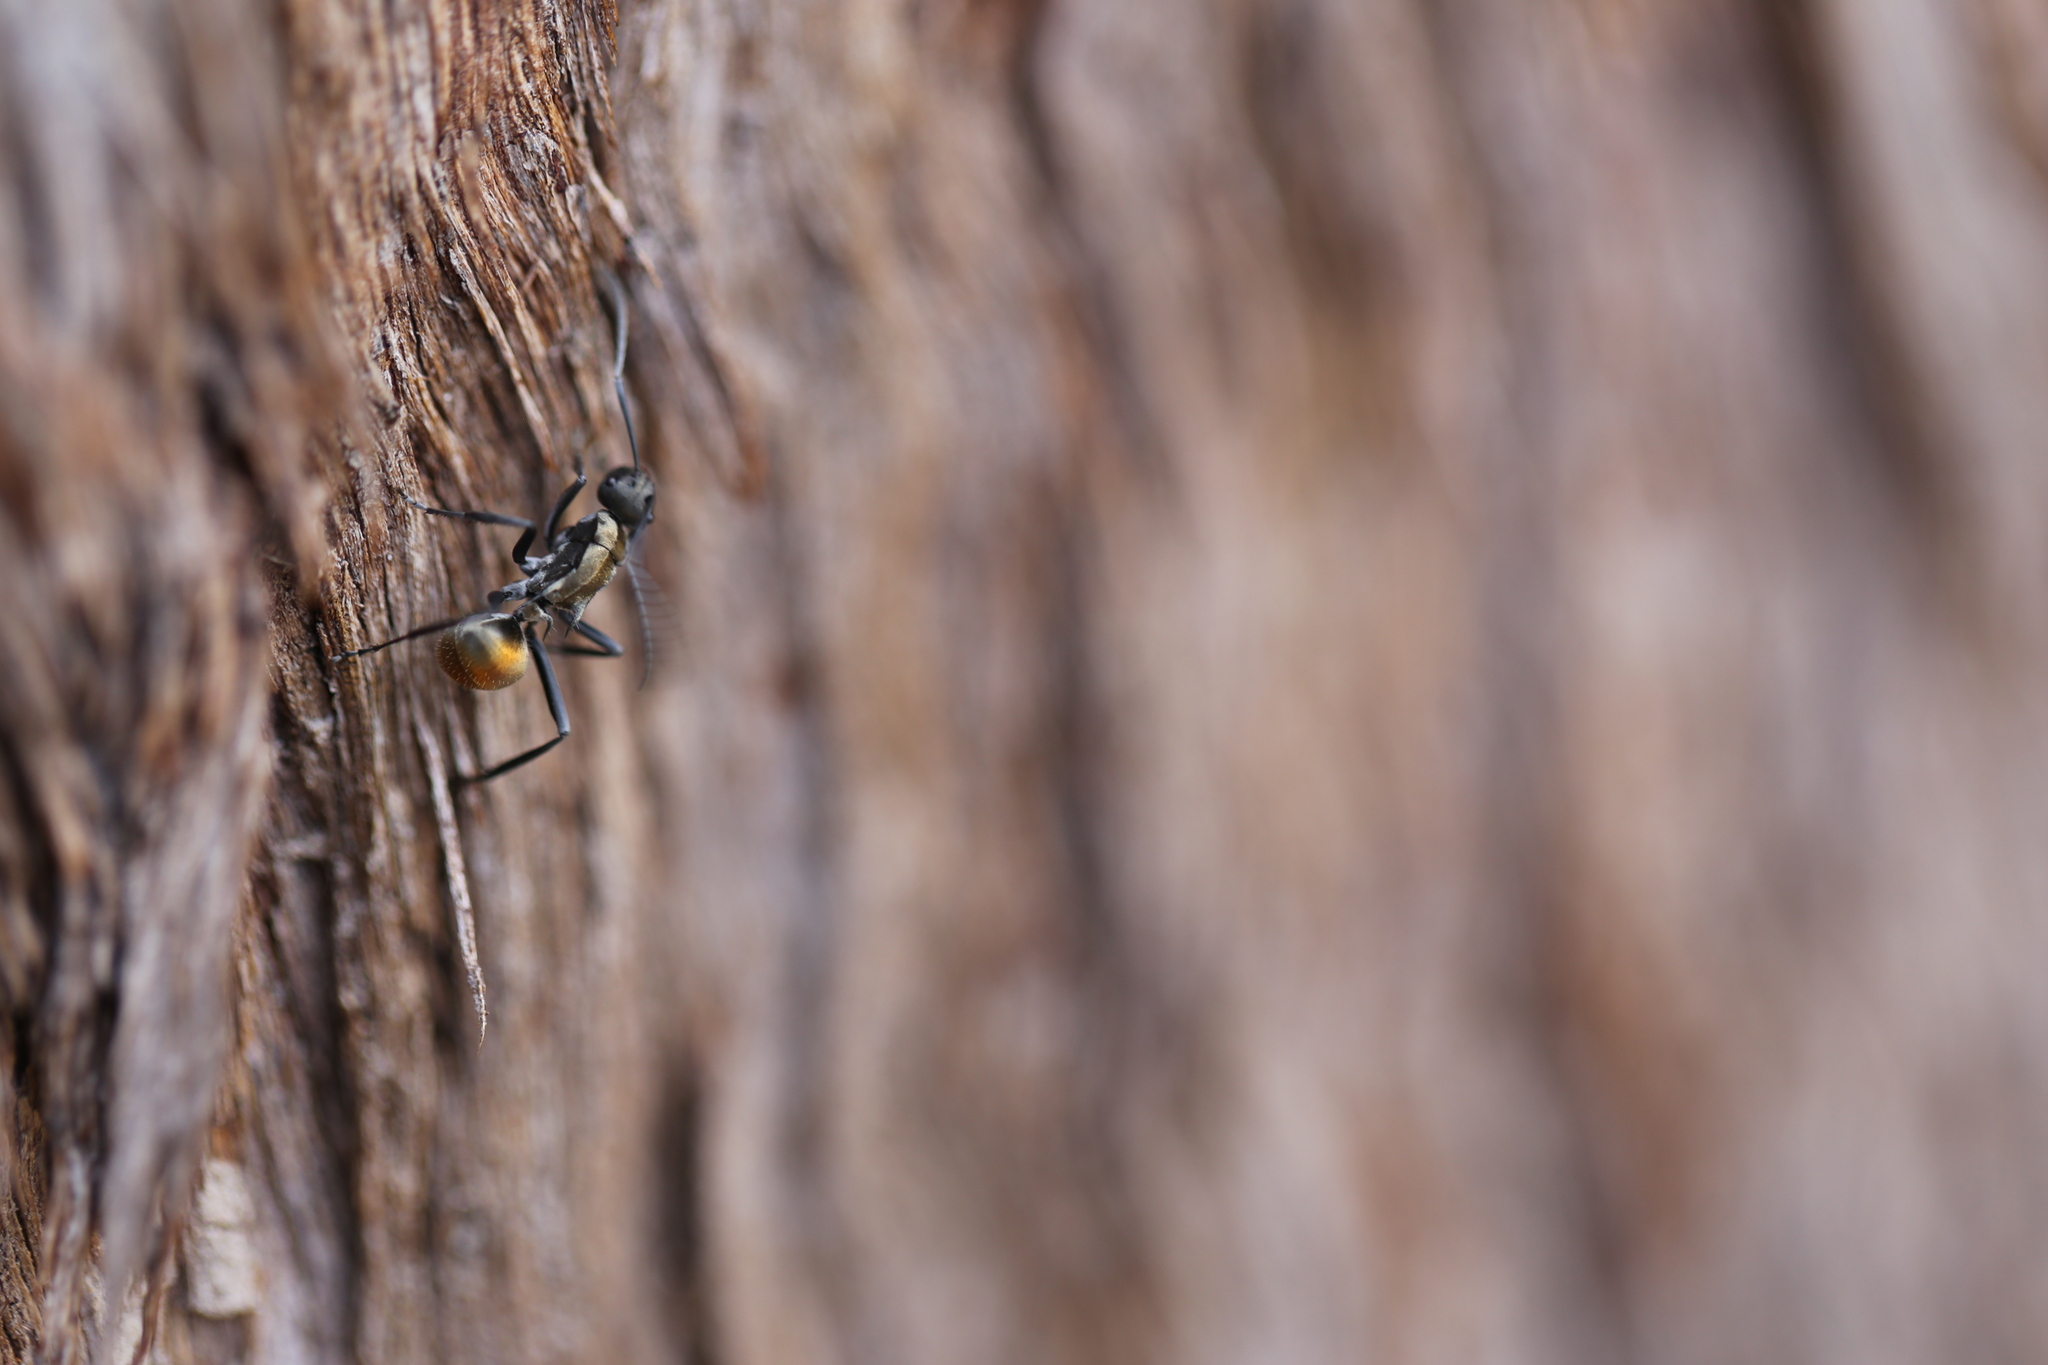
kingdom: Animalia
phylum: Arthropoda
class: Insecta
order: Hymenoptera
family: Formicidae
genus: Polyrhachis
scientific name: Polyrhachis ammon
